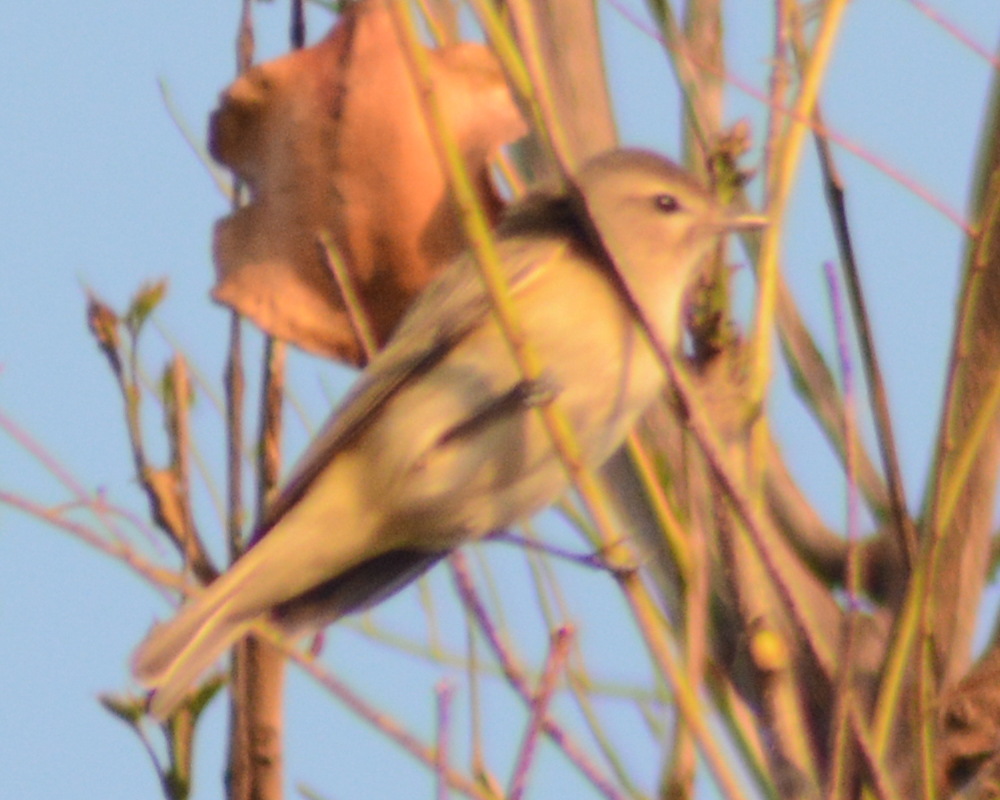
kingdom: Animalia
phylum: Chordata
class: Aves
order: Passeriformes
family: Vireonidae
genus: Vireo
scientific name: Vireo gilvus
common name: Warbling vireo
